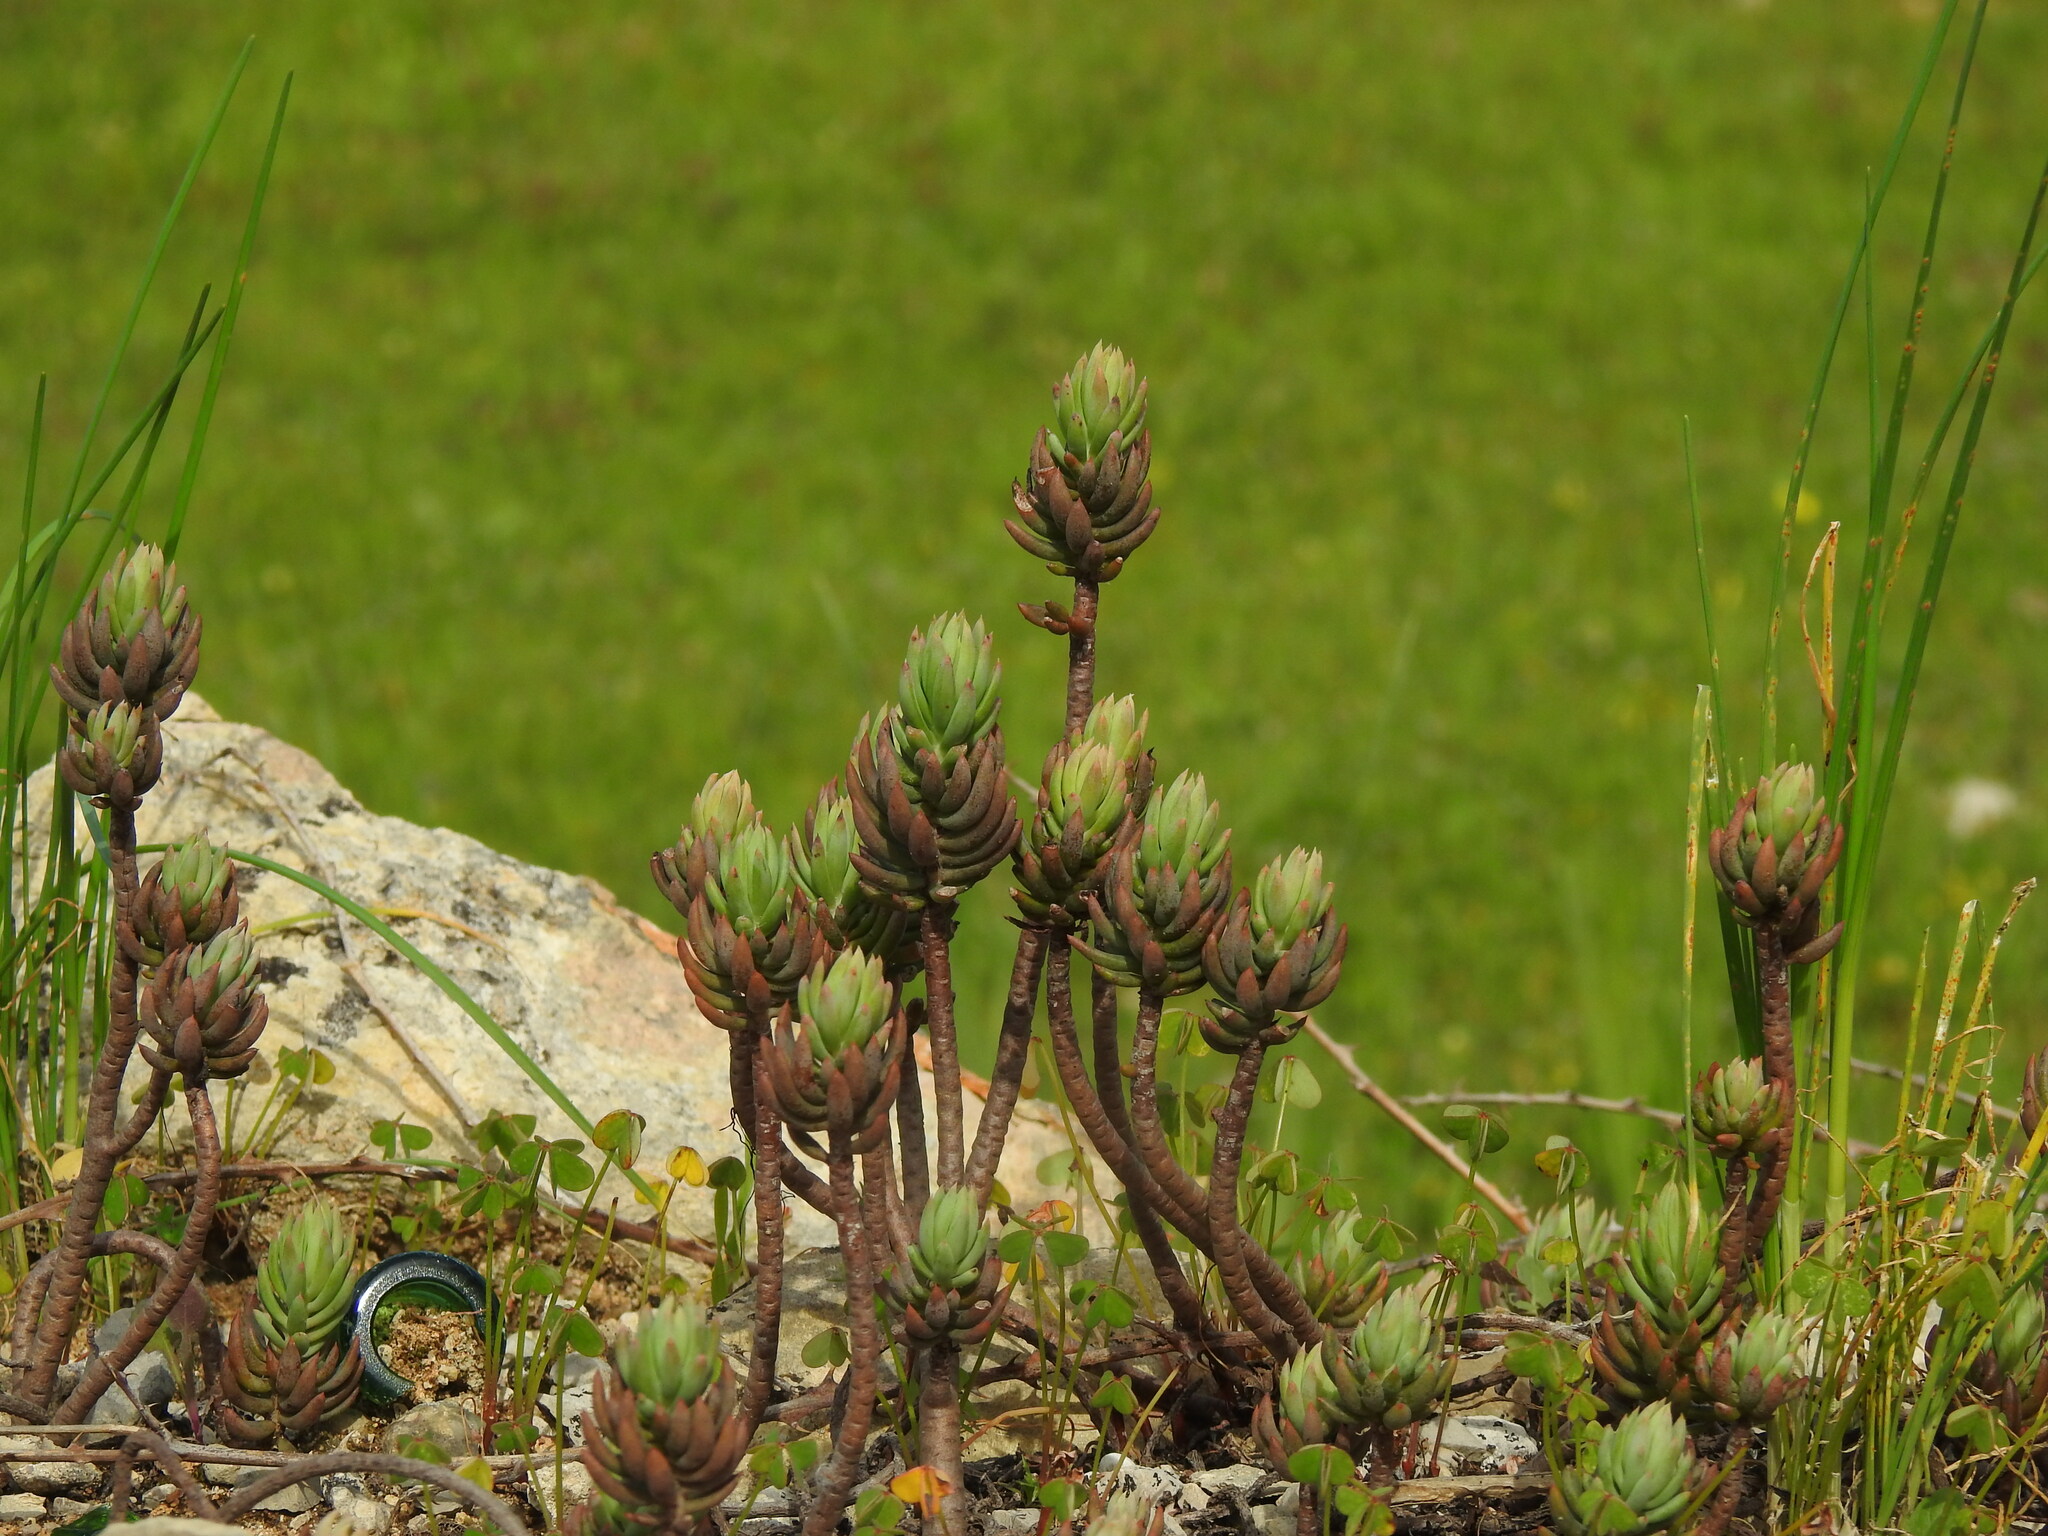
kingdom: Plantae
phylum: Tracheophyta
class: Magnoliopsida
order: Saxifragales
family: Crassulaceae
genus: Petrosedum
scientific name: Petrosedum sediforme
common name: Pale stonecrop
